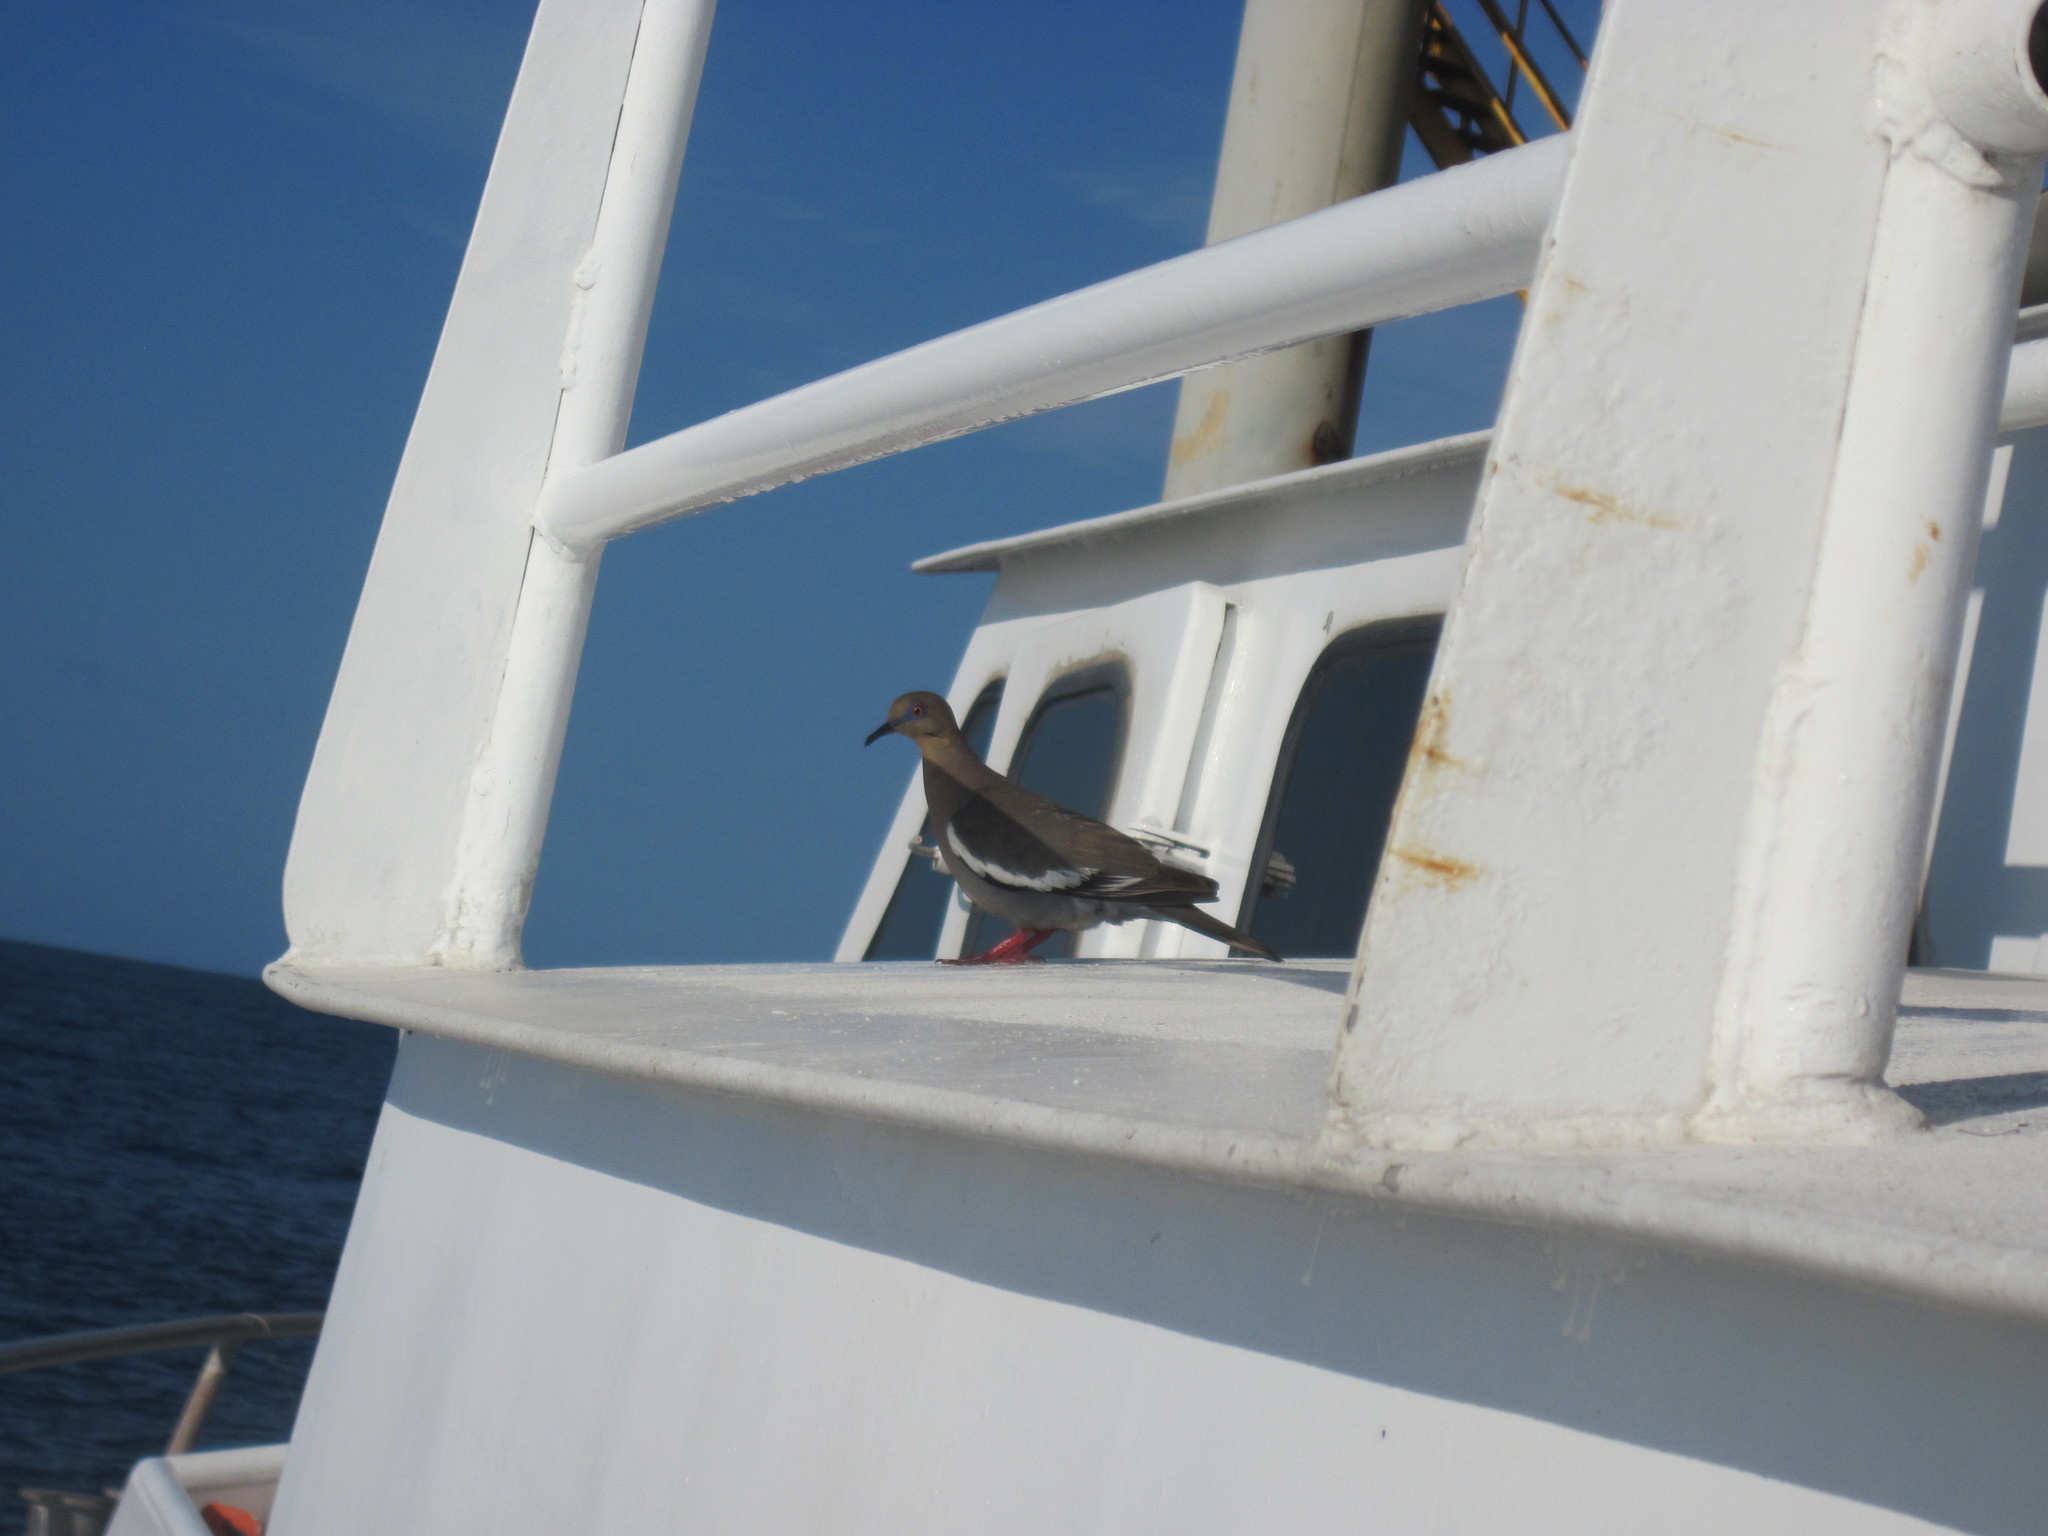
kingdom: Animalia
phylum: Chordata
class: Aves
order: Columbiformes
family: Columbidae
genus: Zenaida
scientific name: Zenaida asiatica
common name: White-winged dove
